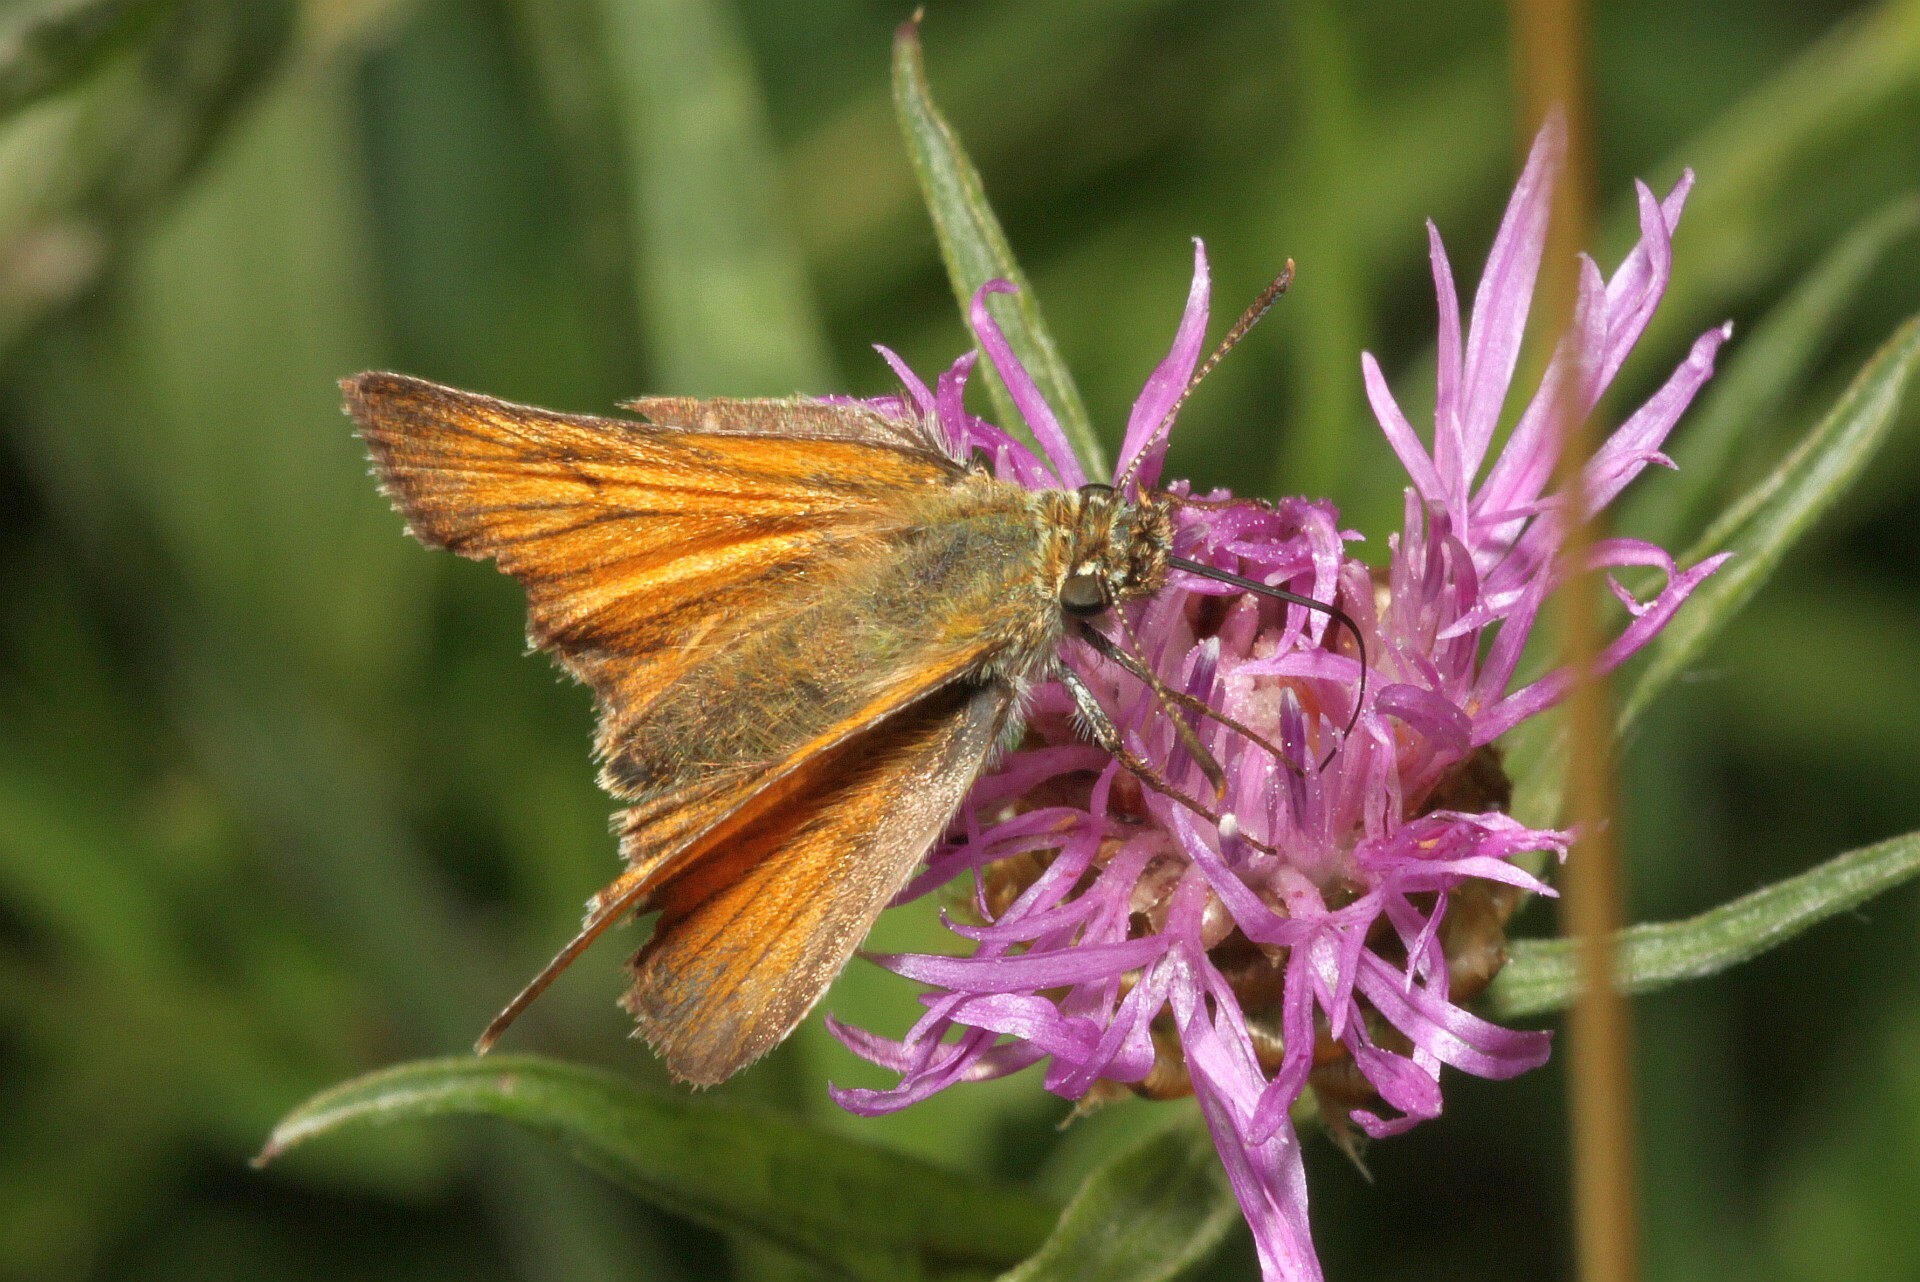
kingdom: Animalia
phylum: Arthropoda
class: Insecta
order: Lepidoptera
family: Hesperiidae
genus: Thymelicus
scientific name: Thymelicus sylvestris
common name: Small skipper
